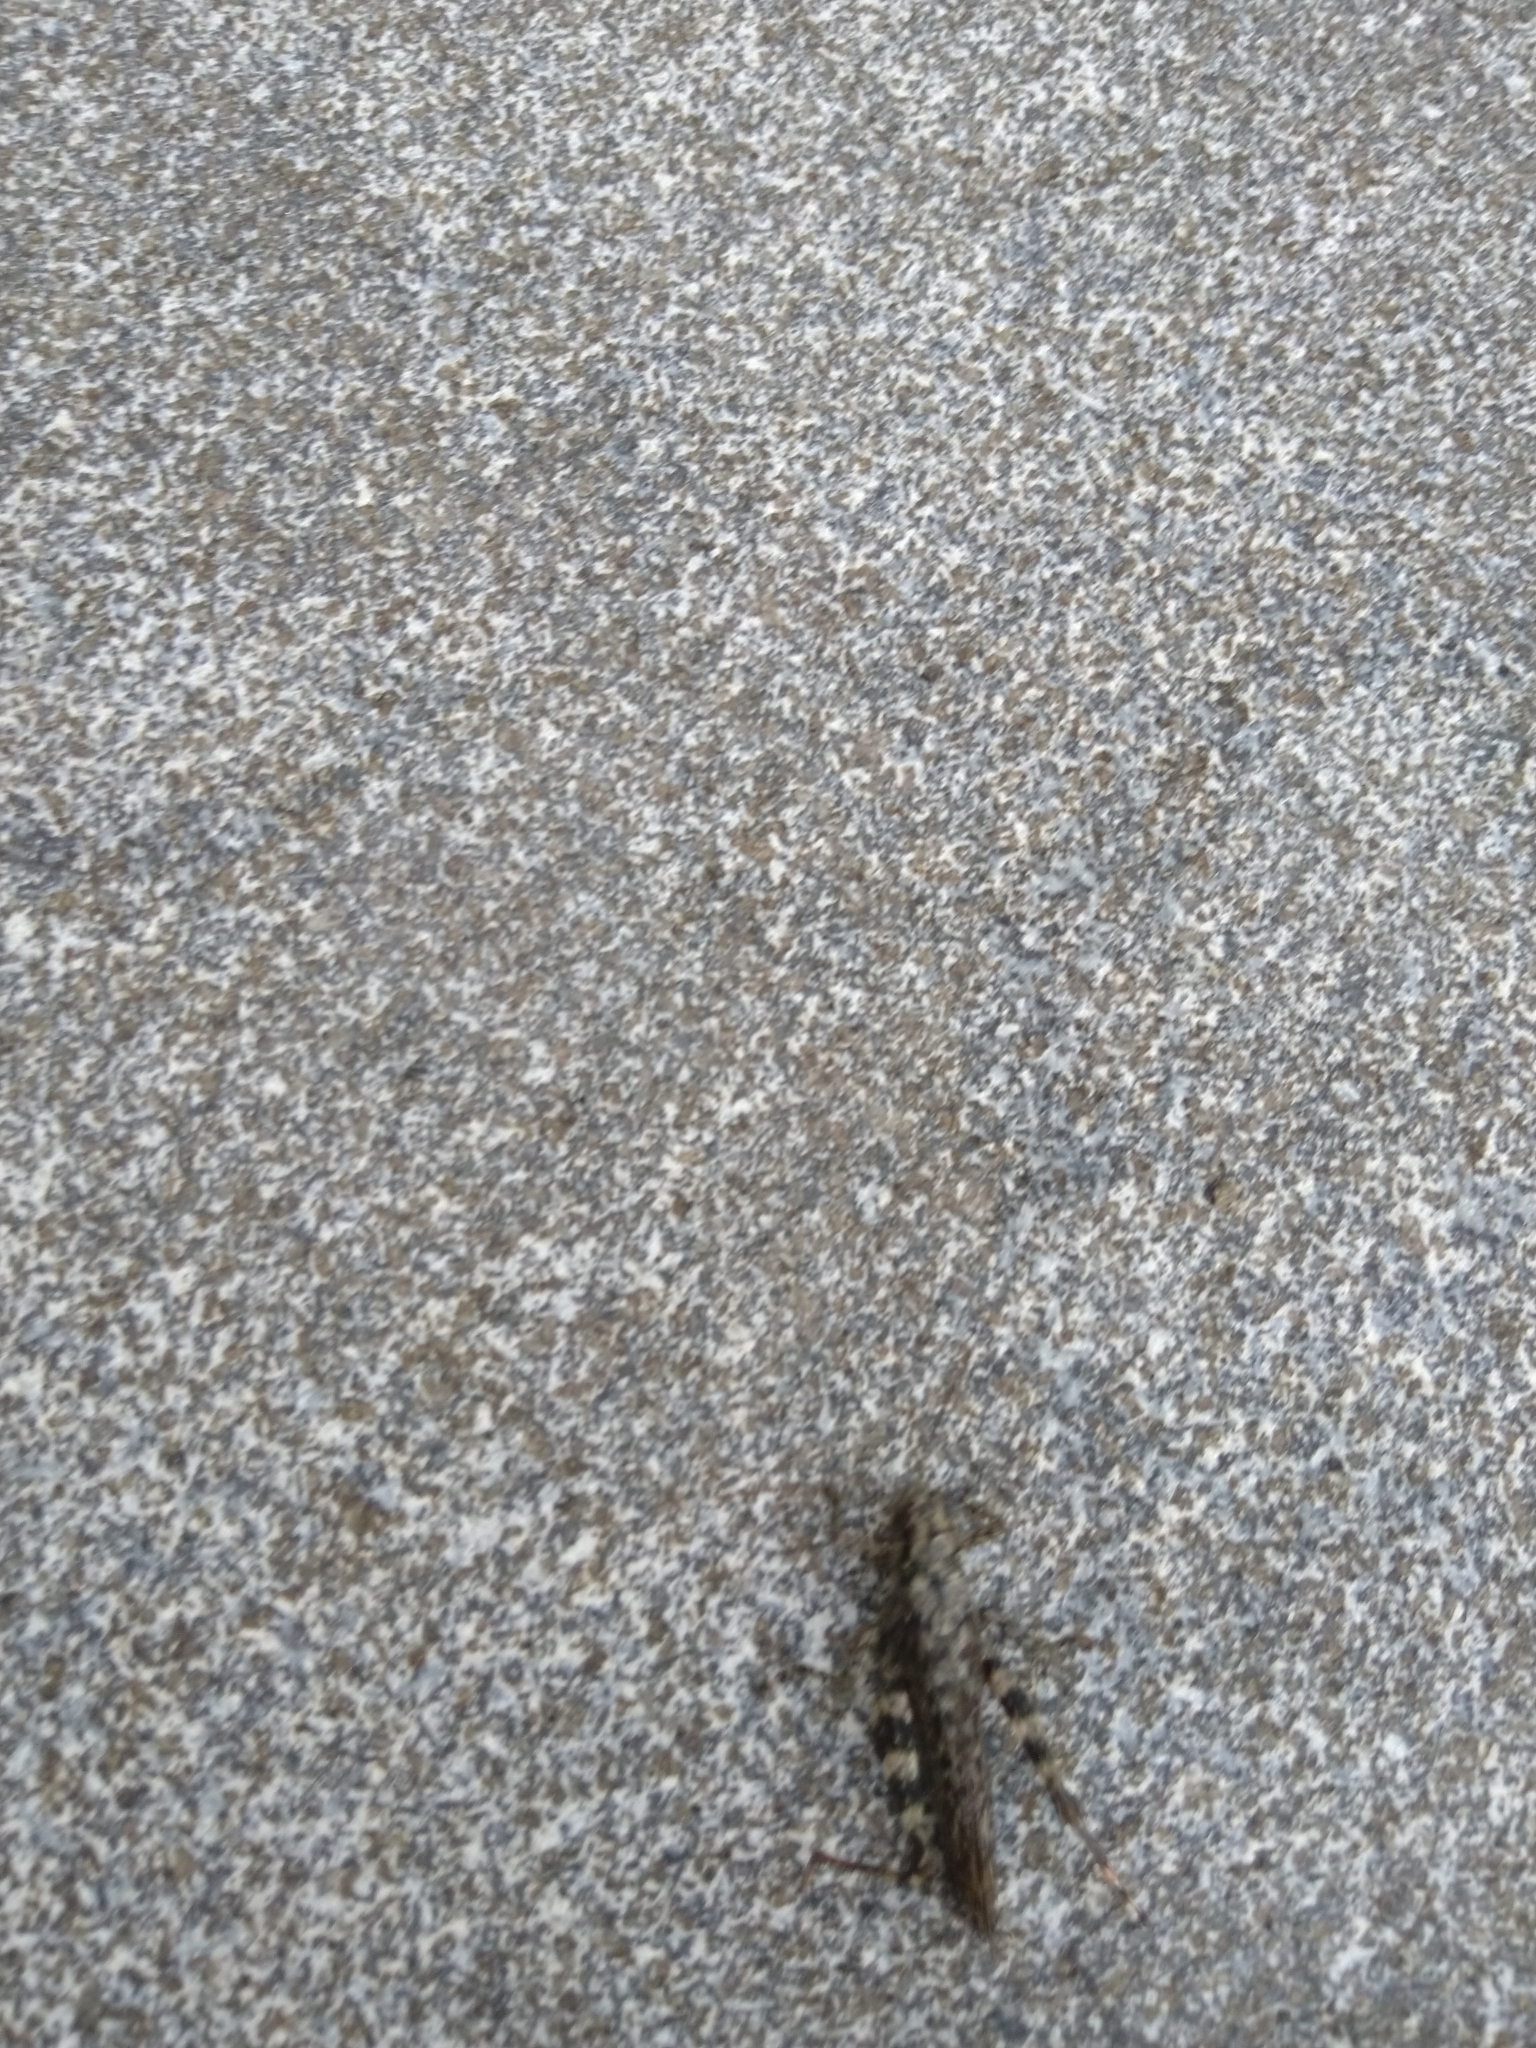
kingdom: Animalia
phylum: Arthropoda
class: Insecta
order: Orthoptera
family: Acrididae
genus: Melanoplus
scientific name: Melanoplus punctulatus
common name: Pine-tree spur-throat grasshopper
